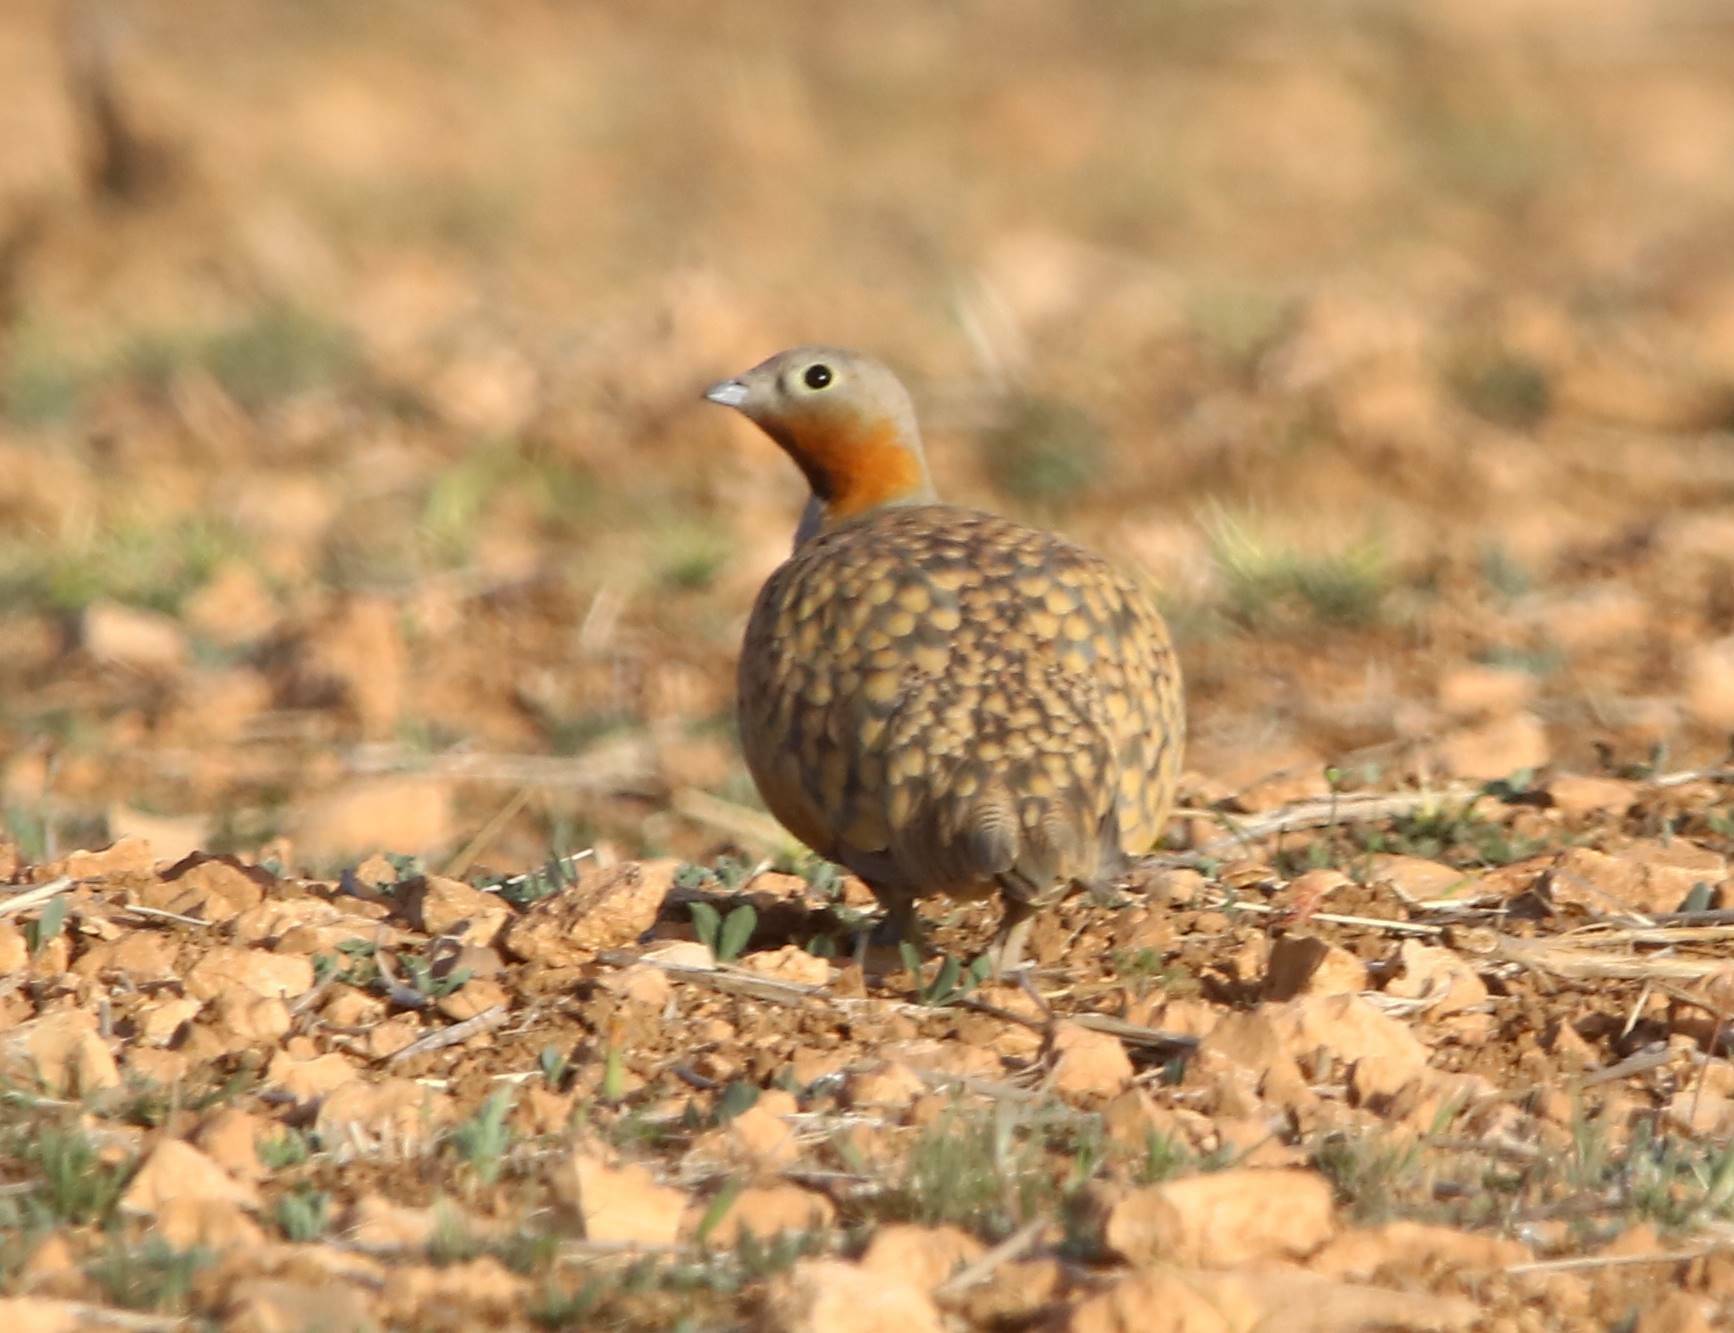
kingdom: Animalia
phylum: Chordata
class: Aves
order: Pteroclidiformes
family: Pteroclididae
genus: Pterocles
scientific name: Pterocles orientalis
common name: Black-bellied sandgrouse
